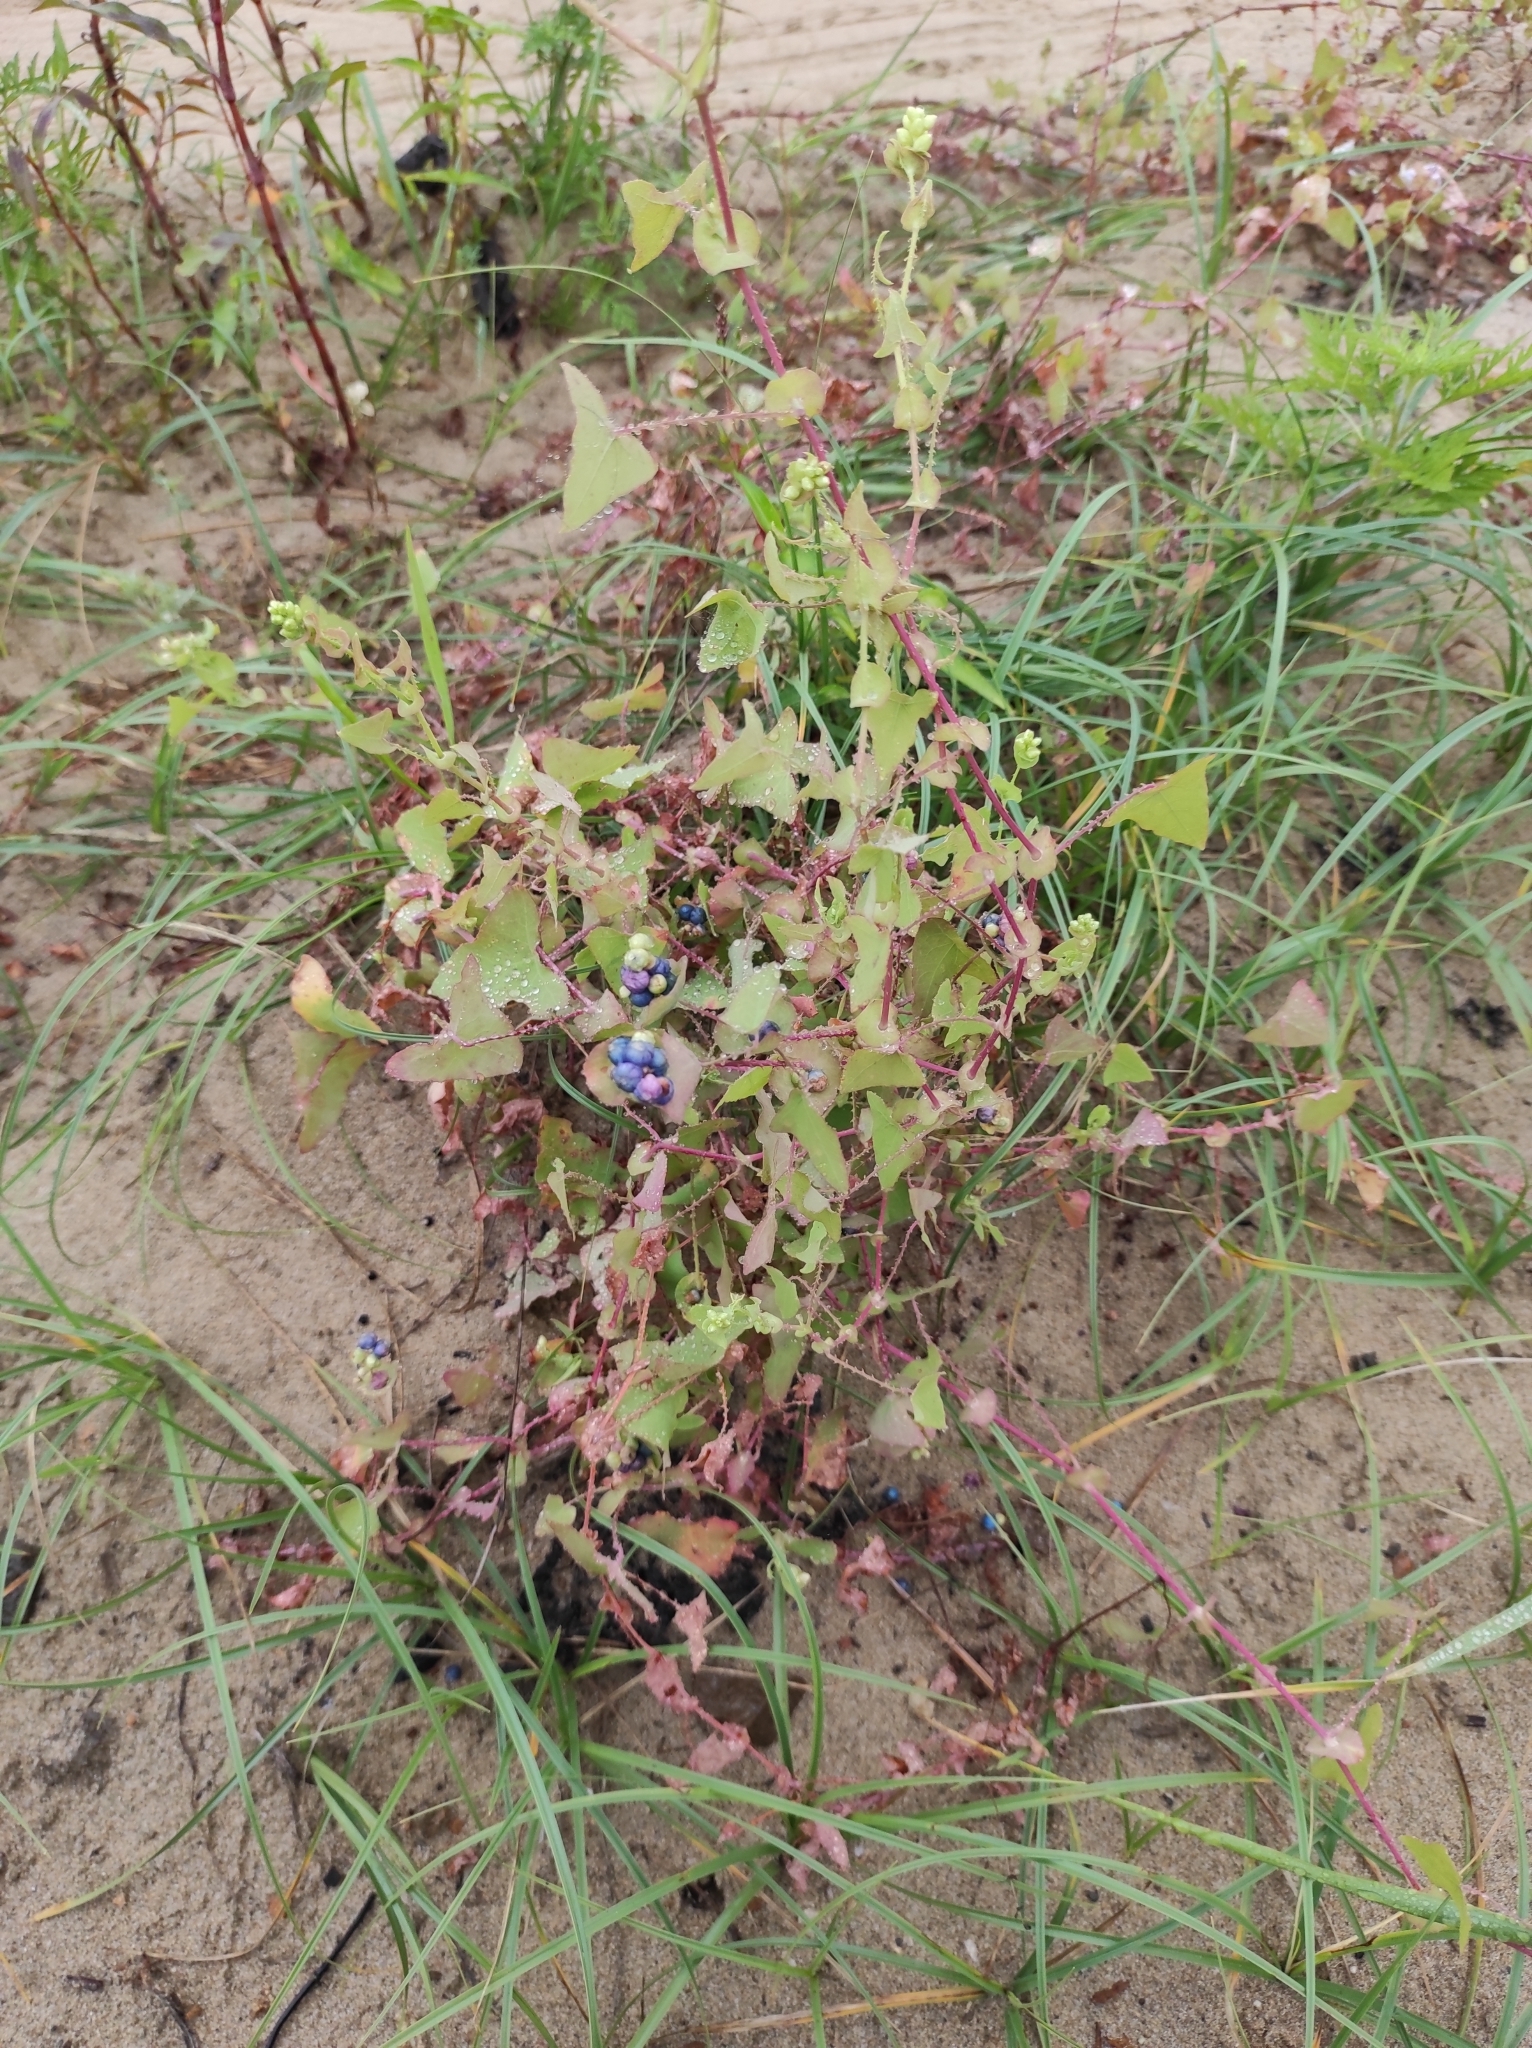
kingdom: Plantae
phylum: Tracheophyta
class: Magnoliopsida
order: Caryophyllales
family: Polygonaceae
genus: Persicaria
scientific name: Persicaria perfoliata
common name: Asiatic tearthumb
